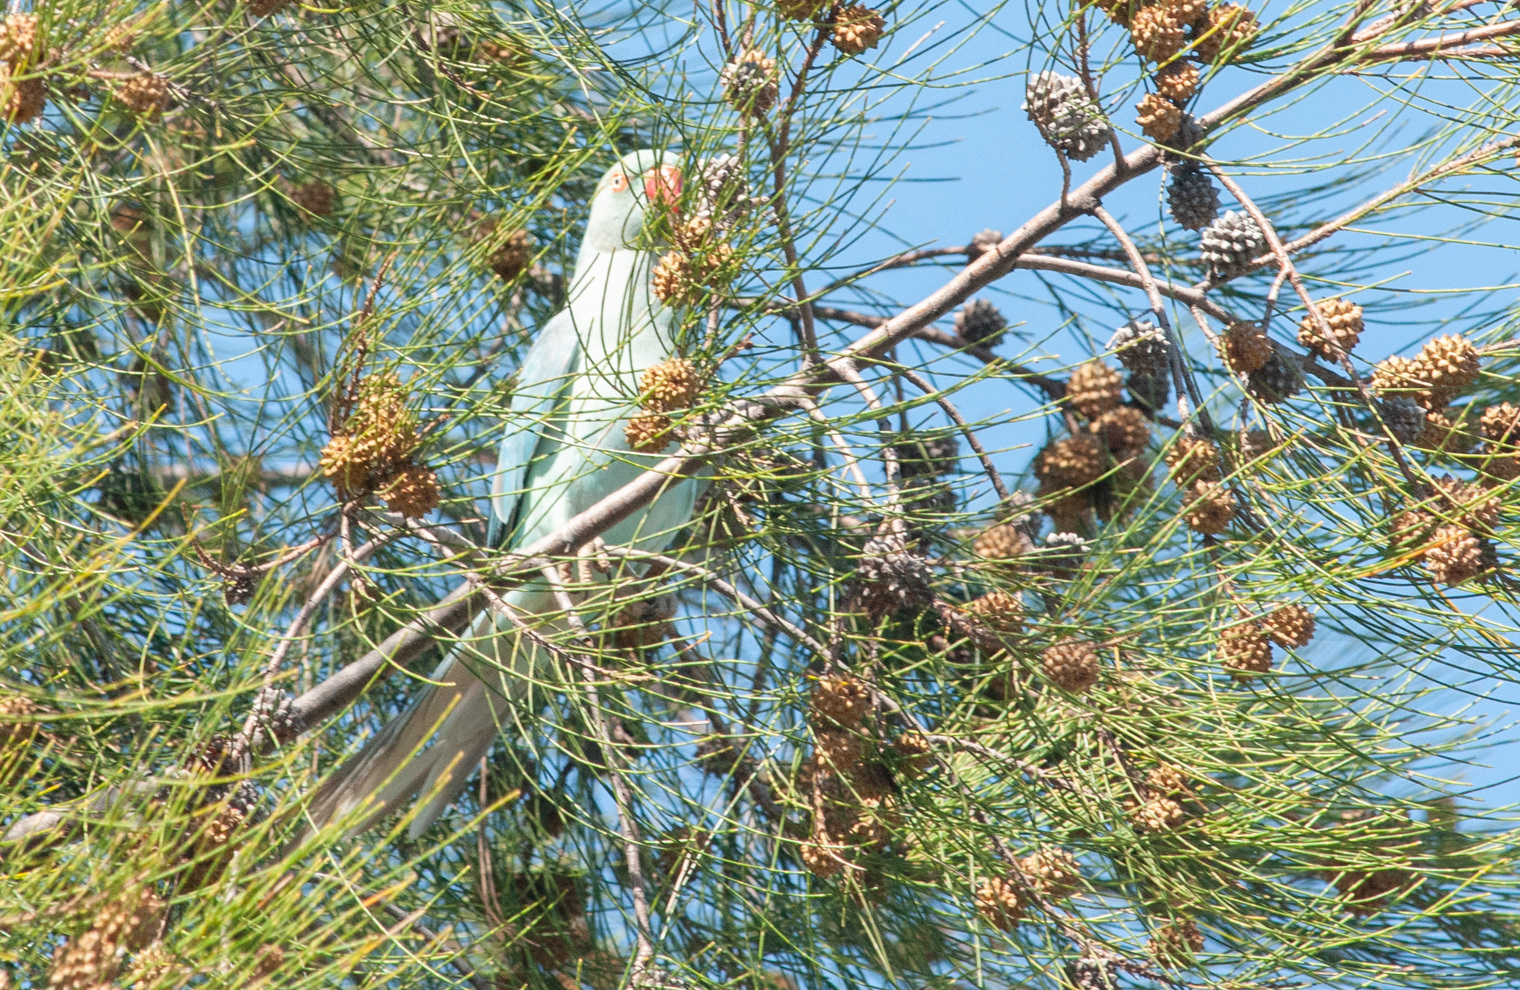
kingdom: Animalia
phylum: Chordata
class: Aves
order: Psittaciformes
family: Psittacidae
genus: Psittacula
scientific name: Psittacula krameri
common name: Rose-ringed parakeet
